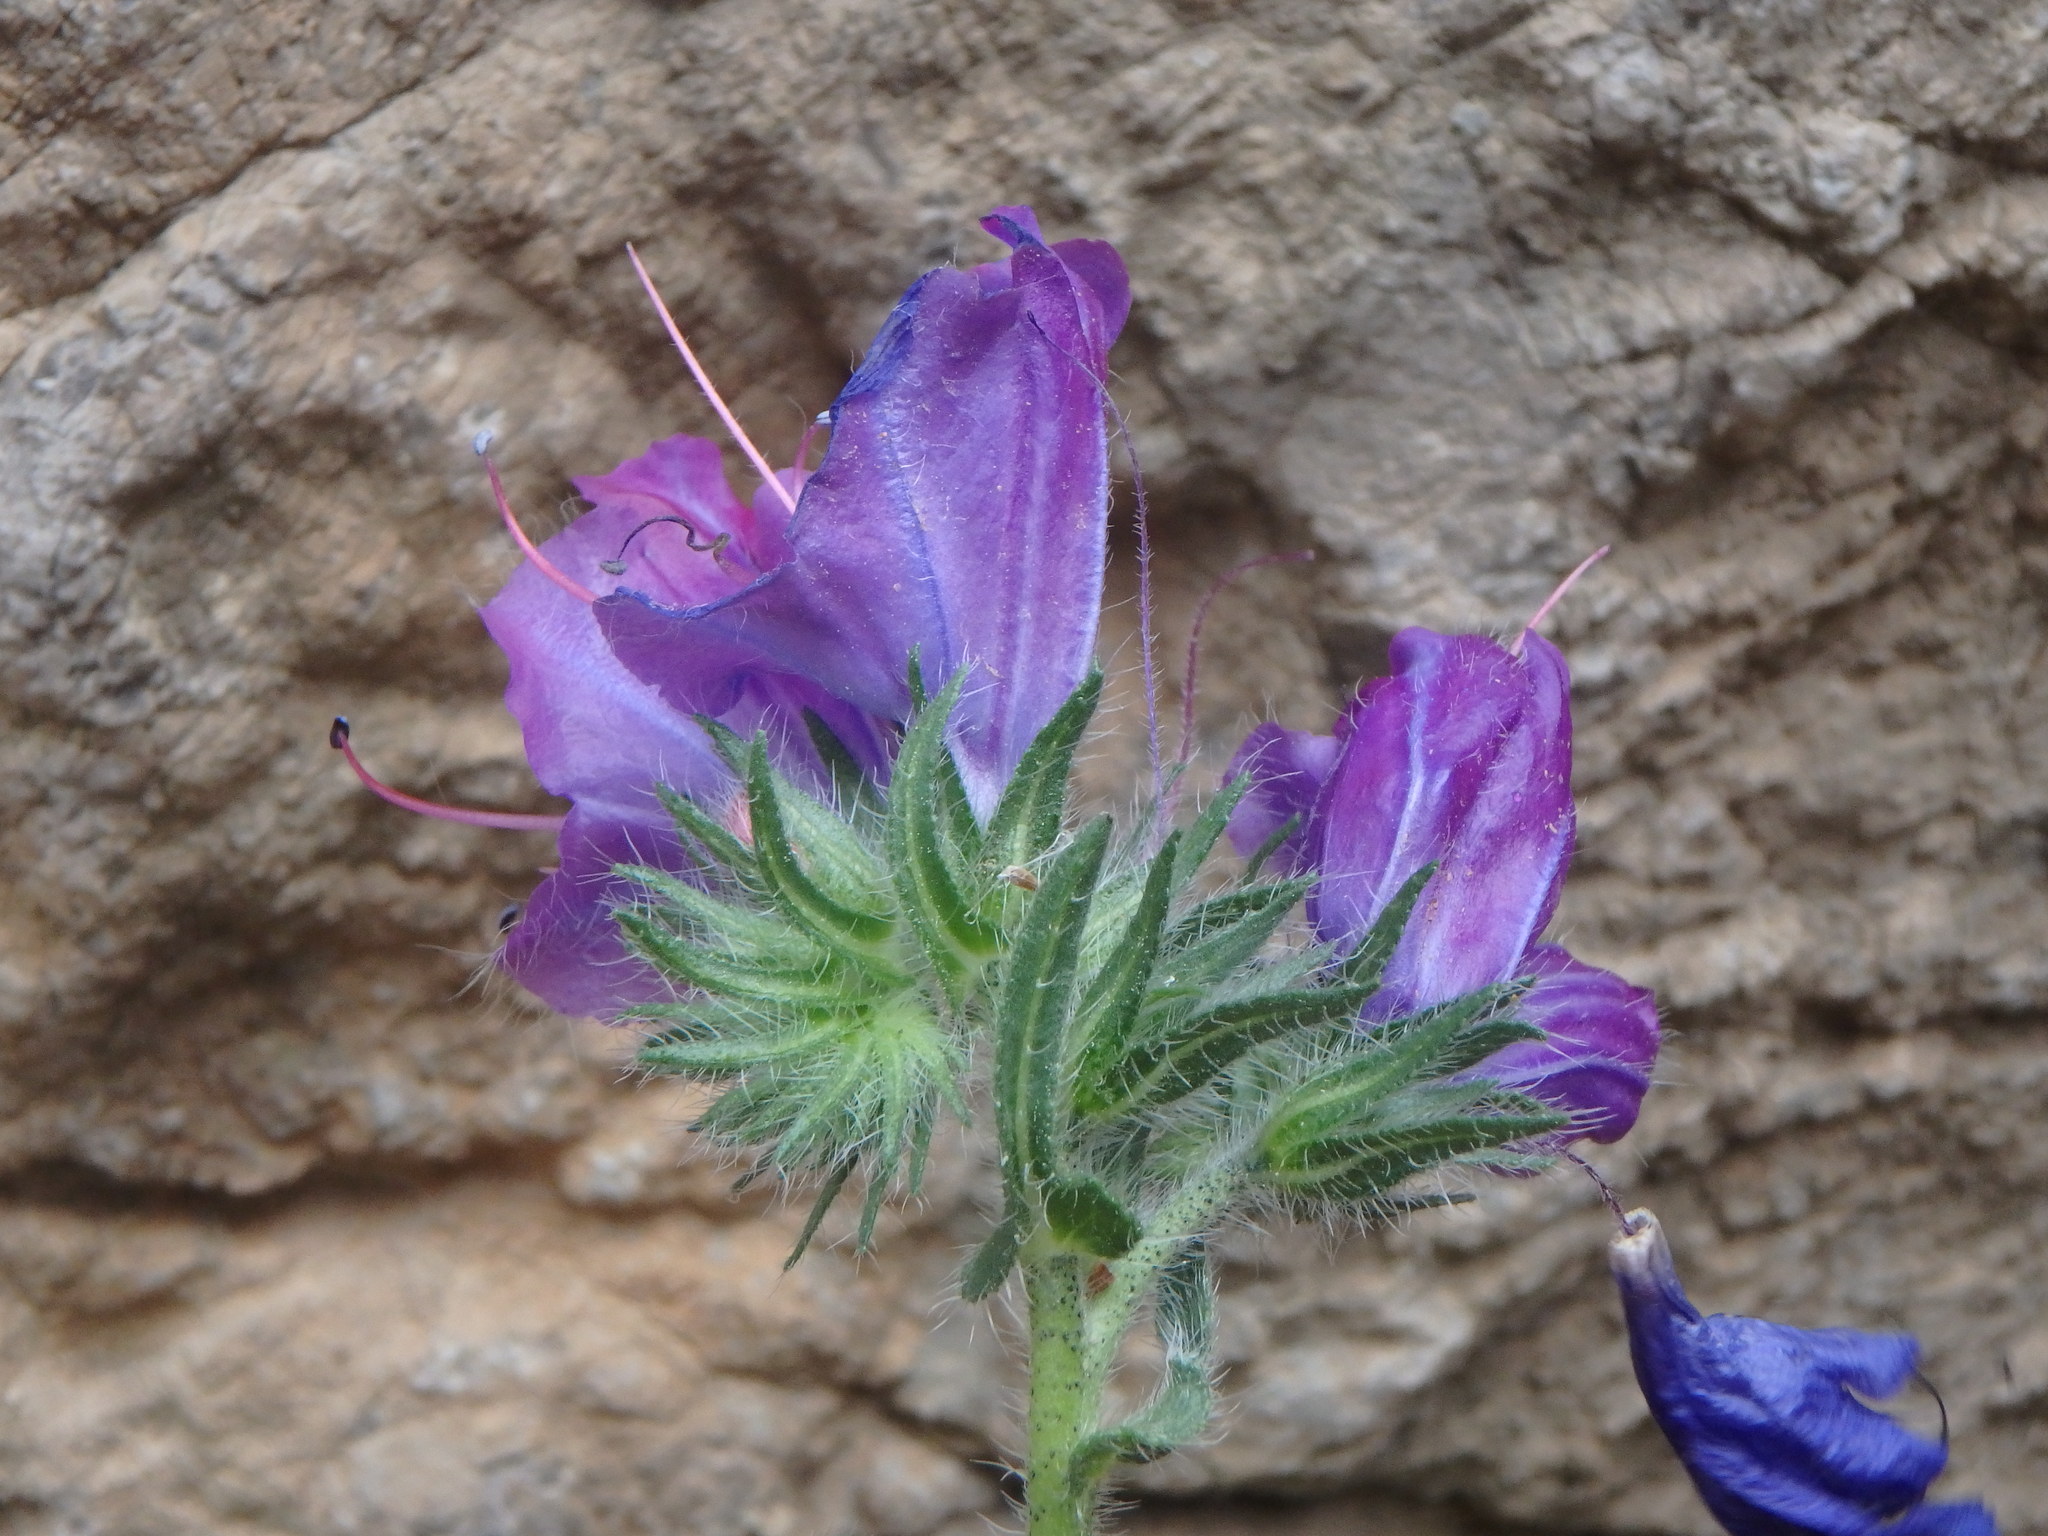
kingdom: Plantae
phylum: Tracheophyta
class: Magnoliopsida
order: Boraginales
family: Boraginaceae
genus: Echium
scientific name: Echium plantagineum
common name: Purple viper's-bugloss
